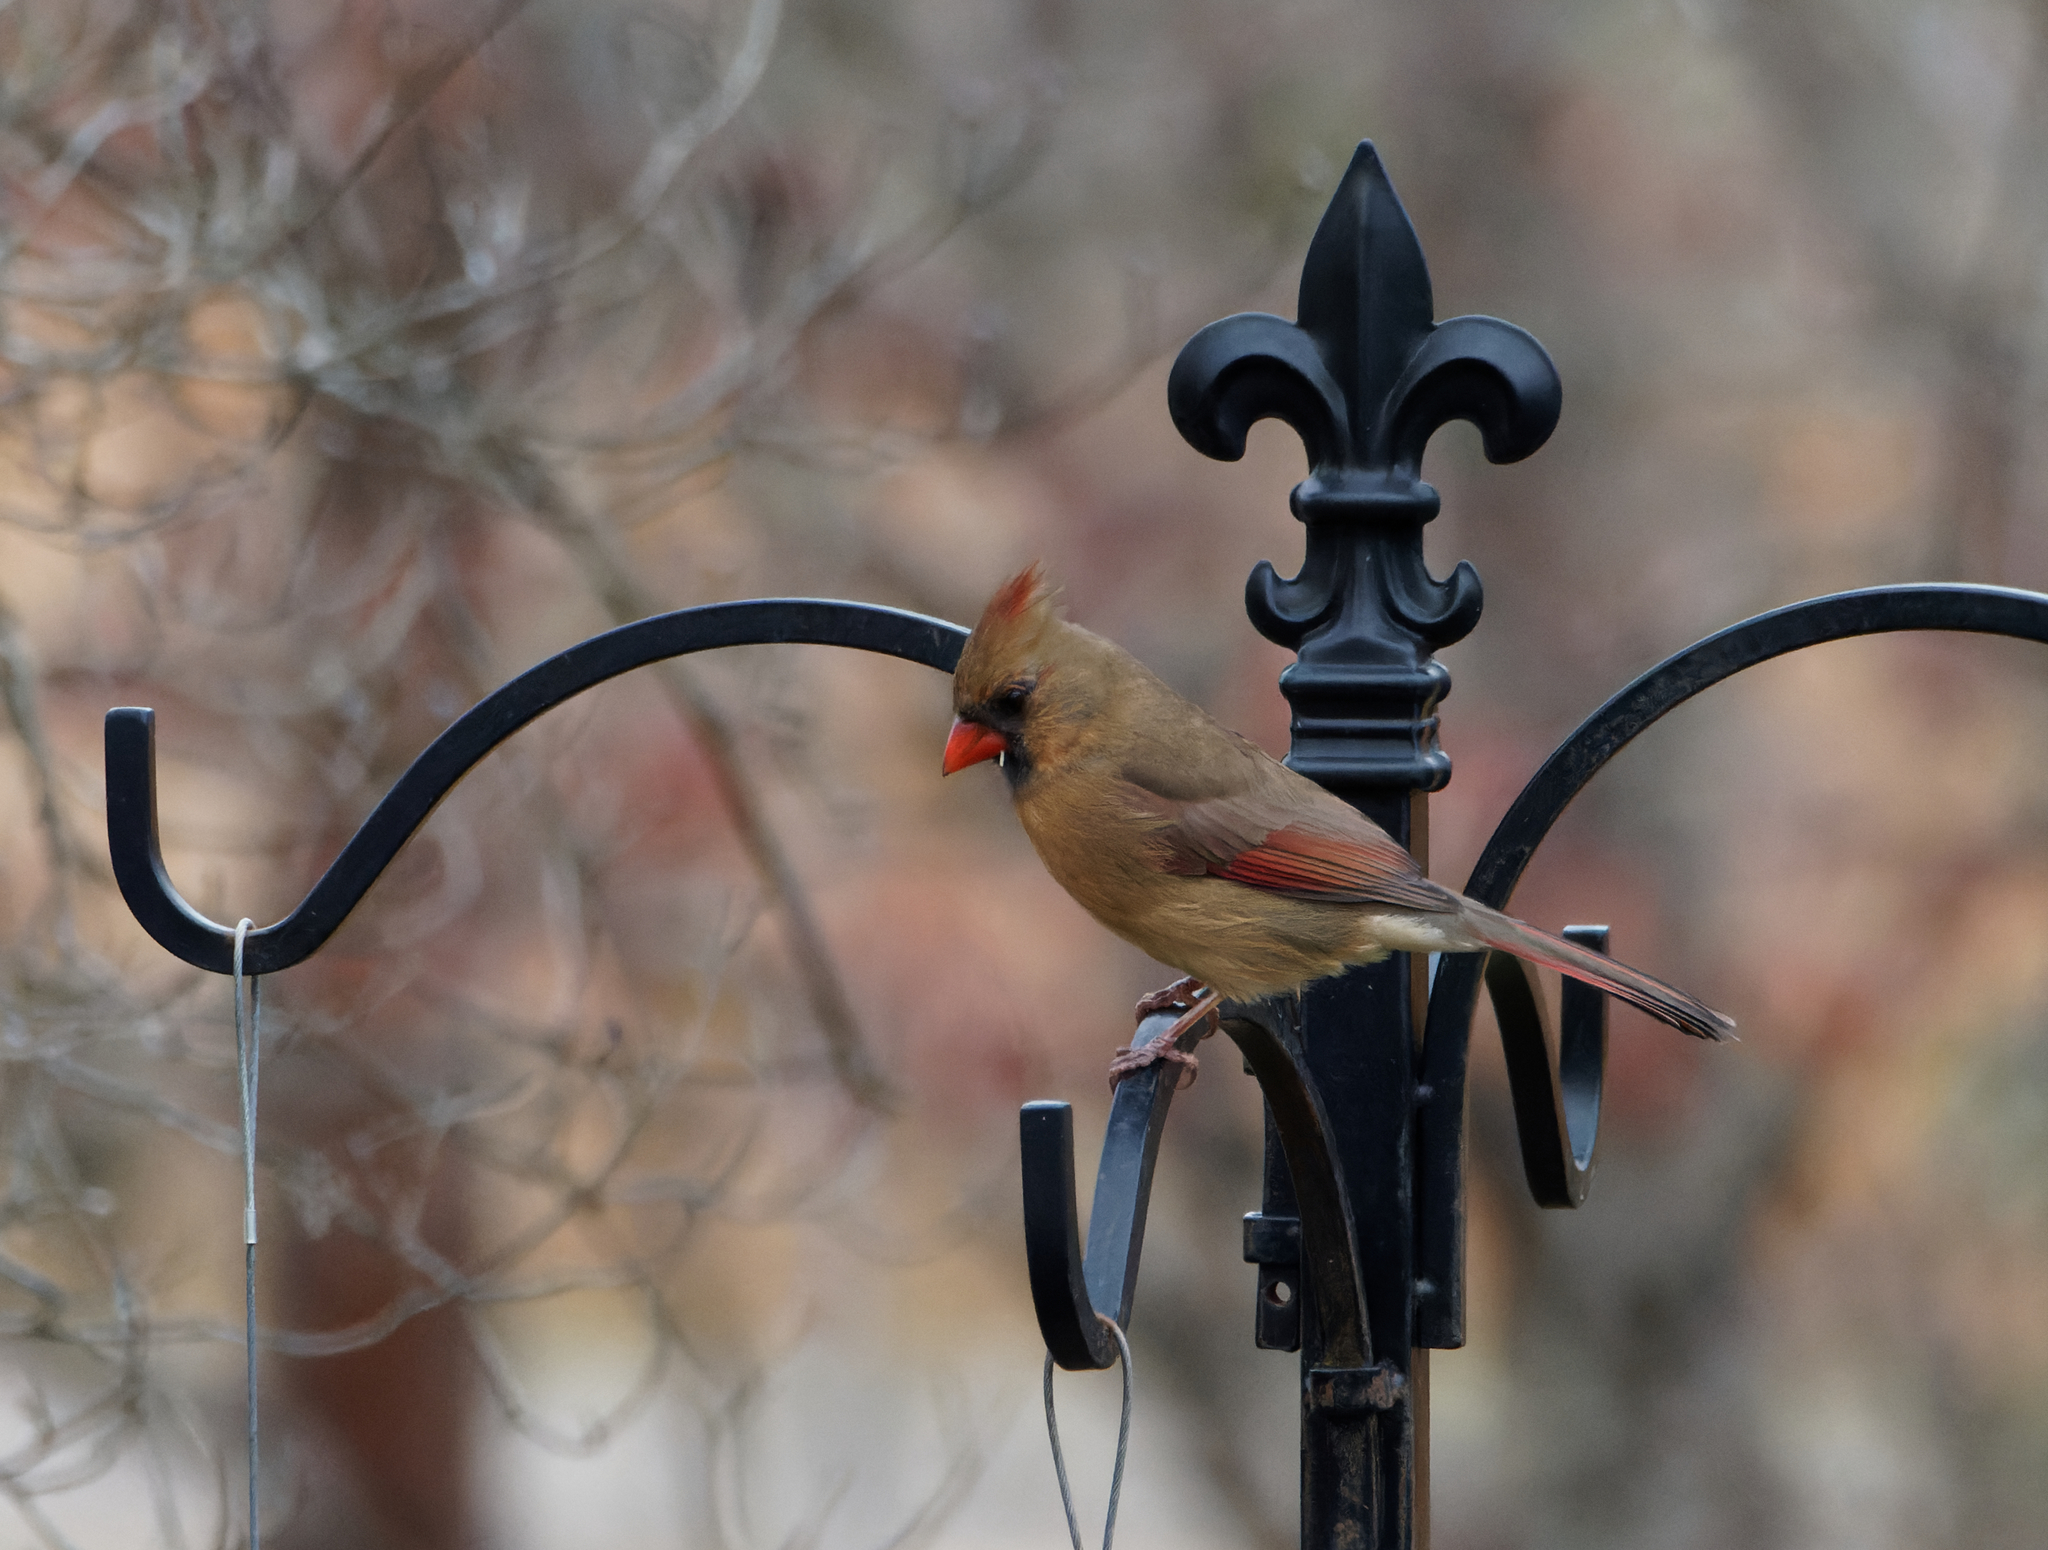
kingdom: Animalia
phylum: Chordata
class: Aves
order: Passeriformes
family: Cardinalidae
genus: Cardinalis
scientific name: Cardinalis cardinalis
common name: Northern cardinal
